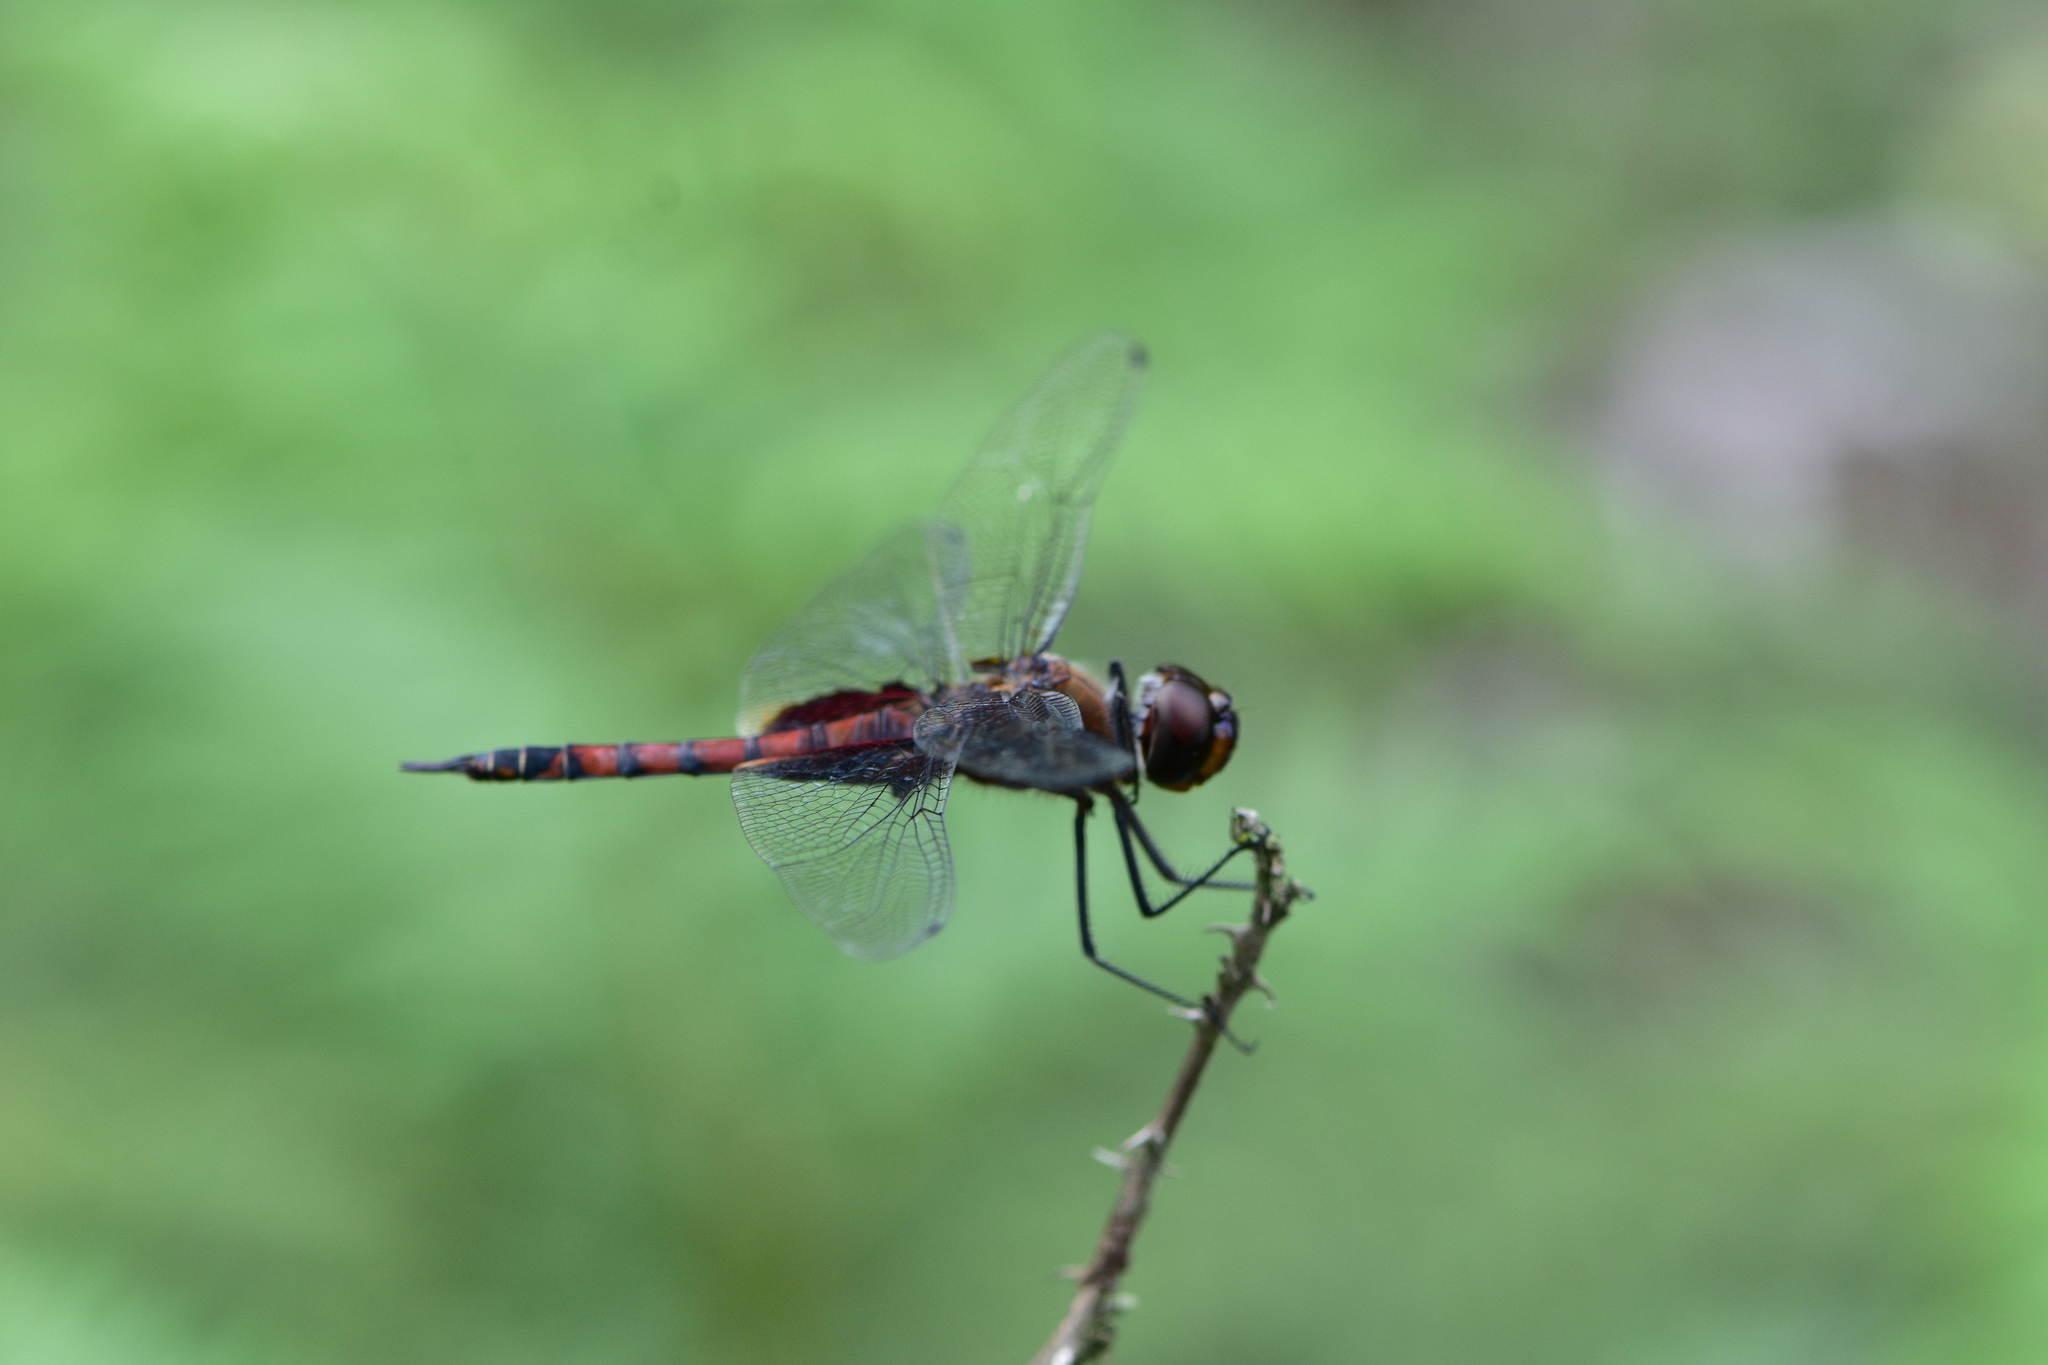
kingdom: Animalia
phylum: Arthropoda
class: Insecta
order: Odonata
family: Libellulidae
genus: Tramea
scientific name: Tramea limbata
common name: Ferruginous glider
